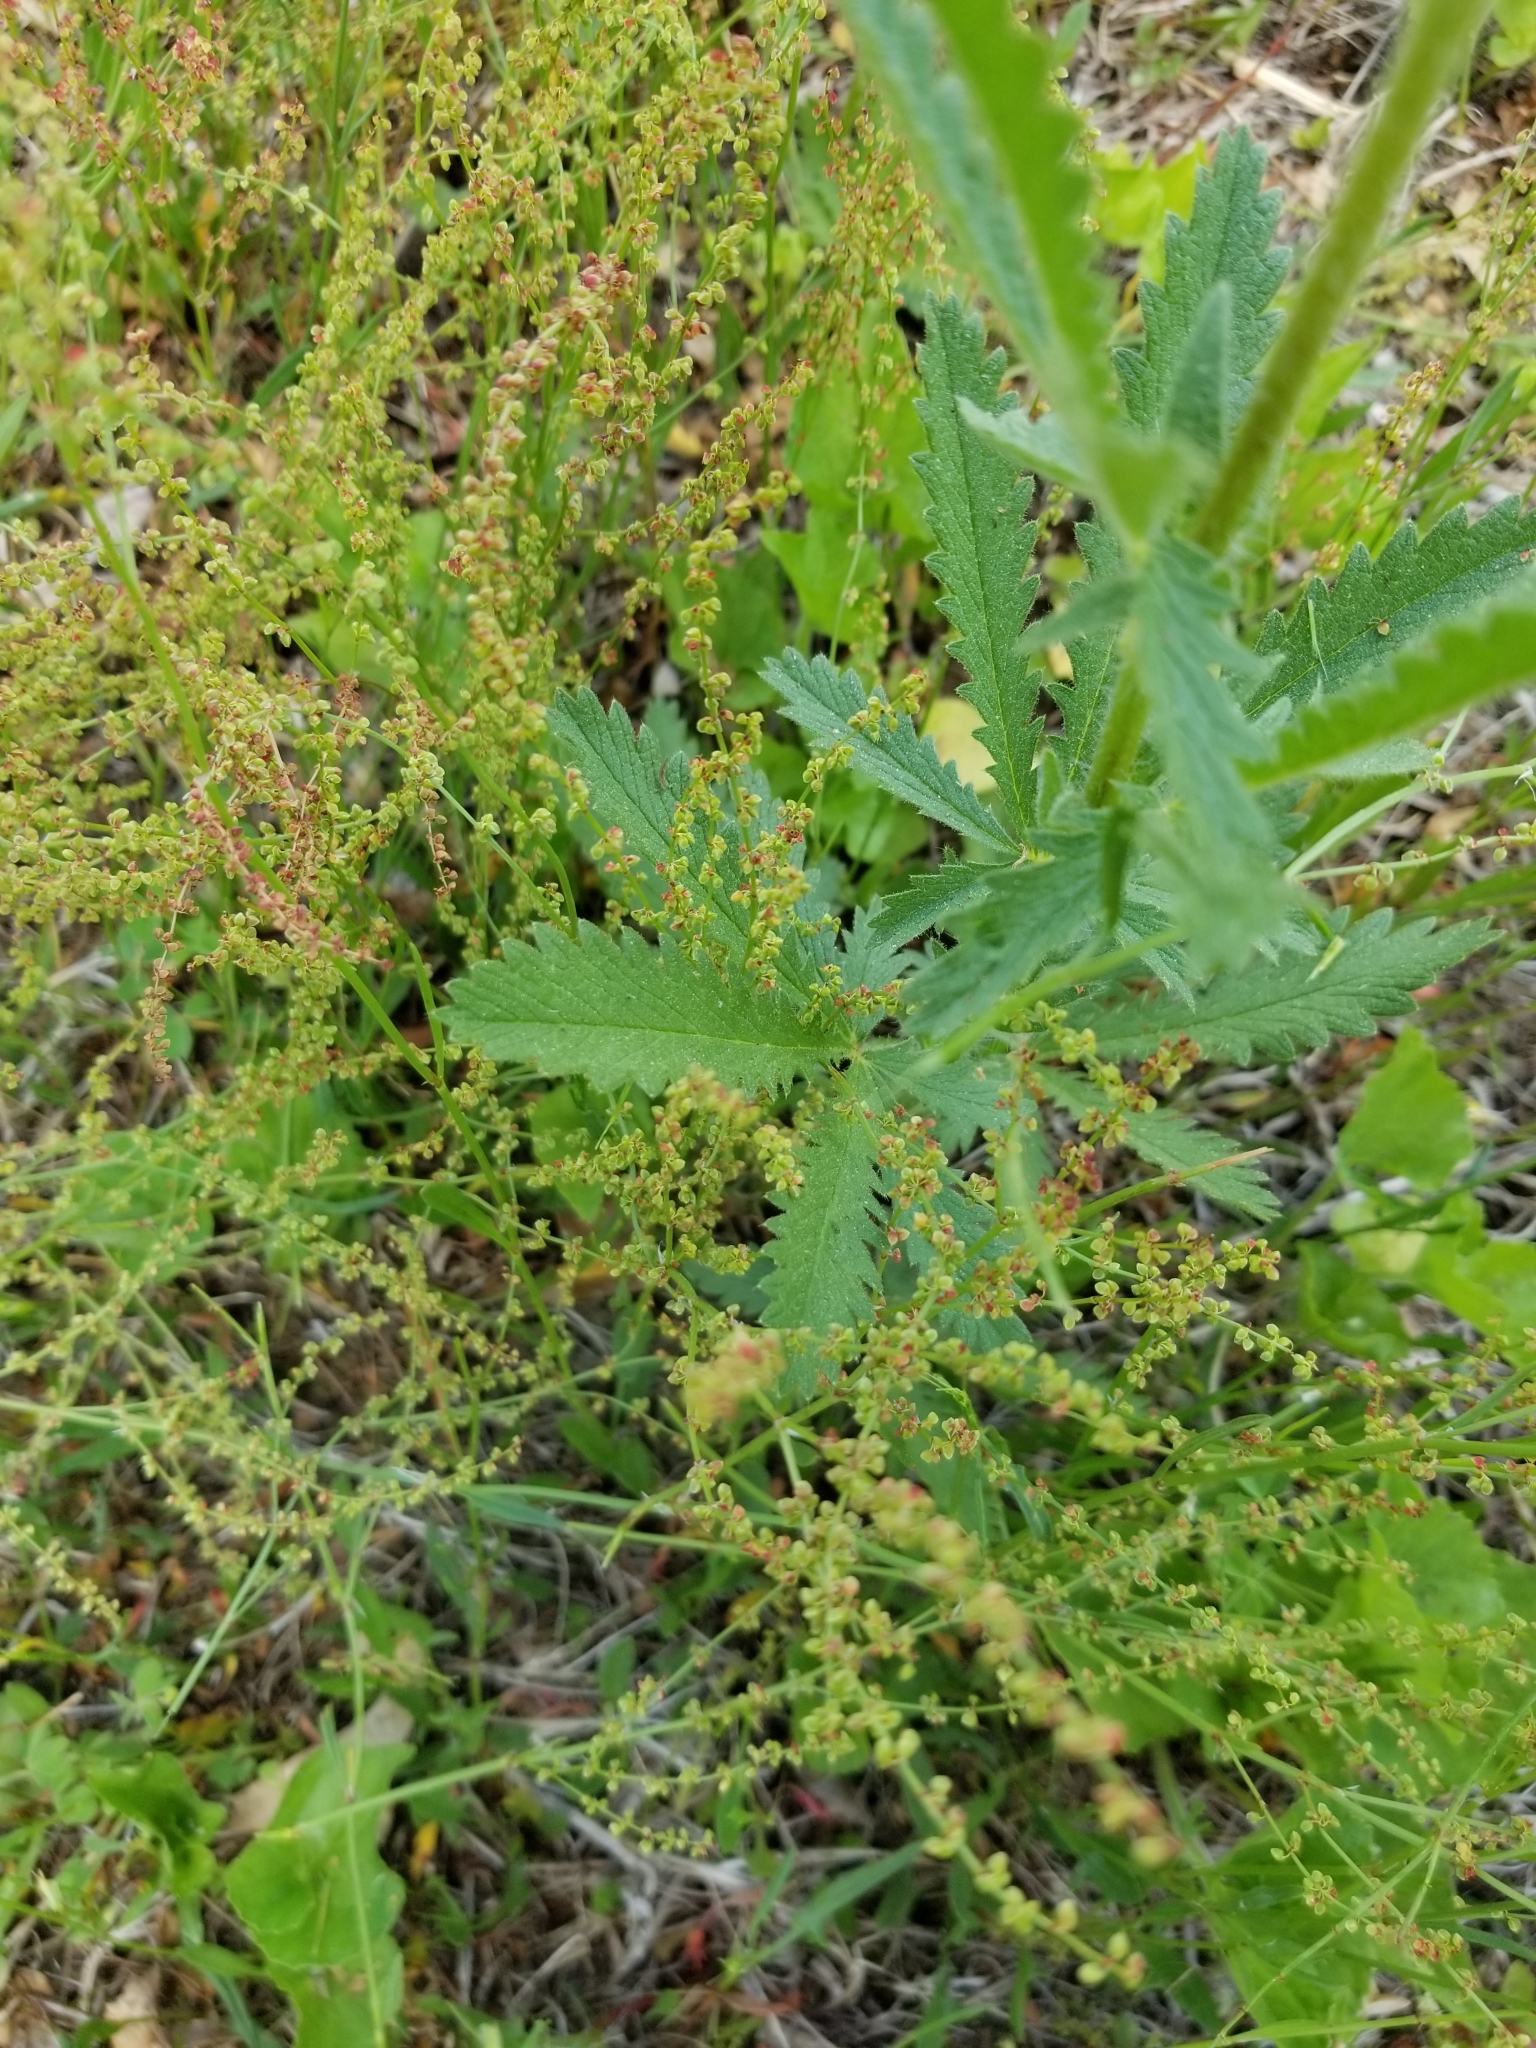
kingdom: Plantae
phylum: Tracheophyta
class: Magnoliopsida
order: Rosales
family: Rosaceae
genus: Potentilla
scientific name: Potentilla recta
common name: Sulphur cinquefoil
